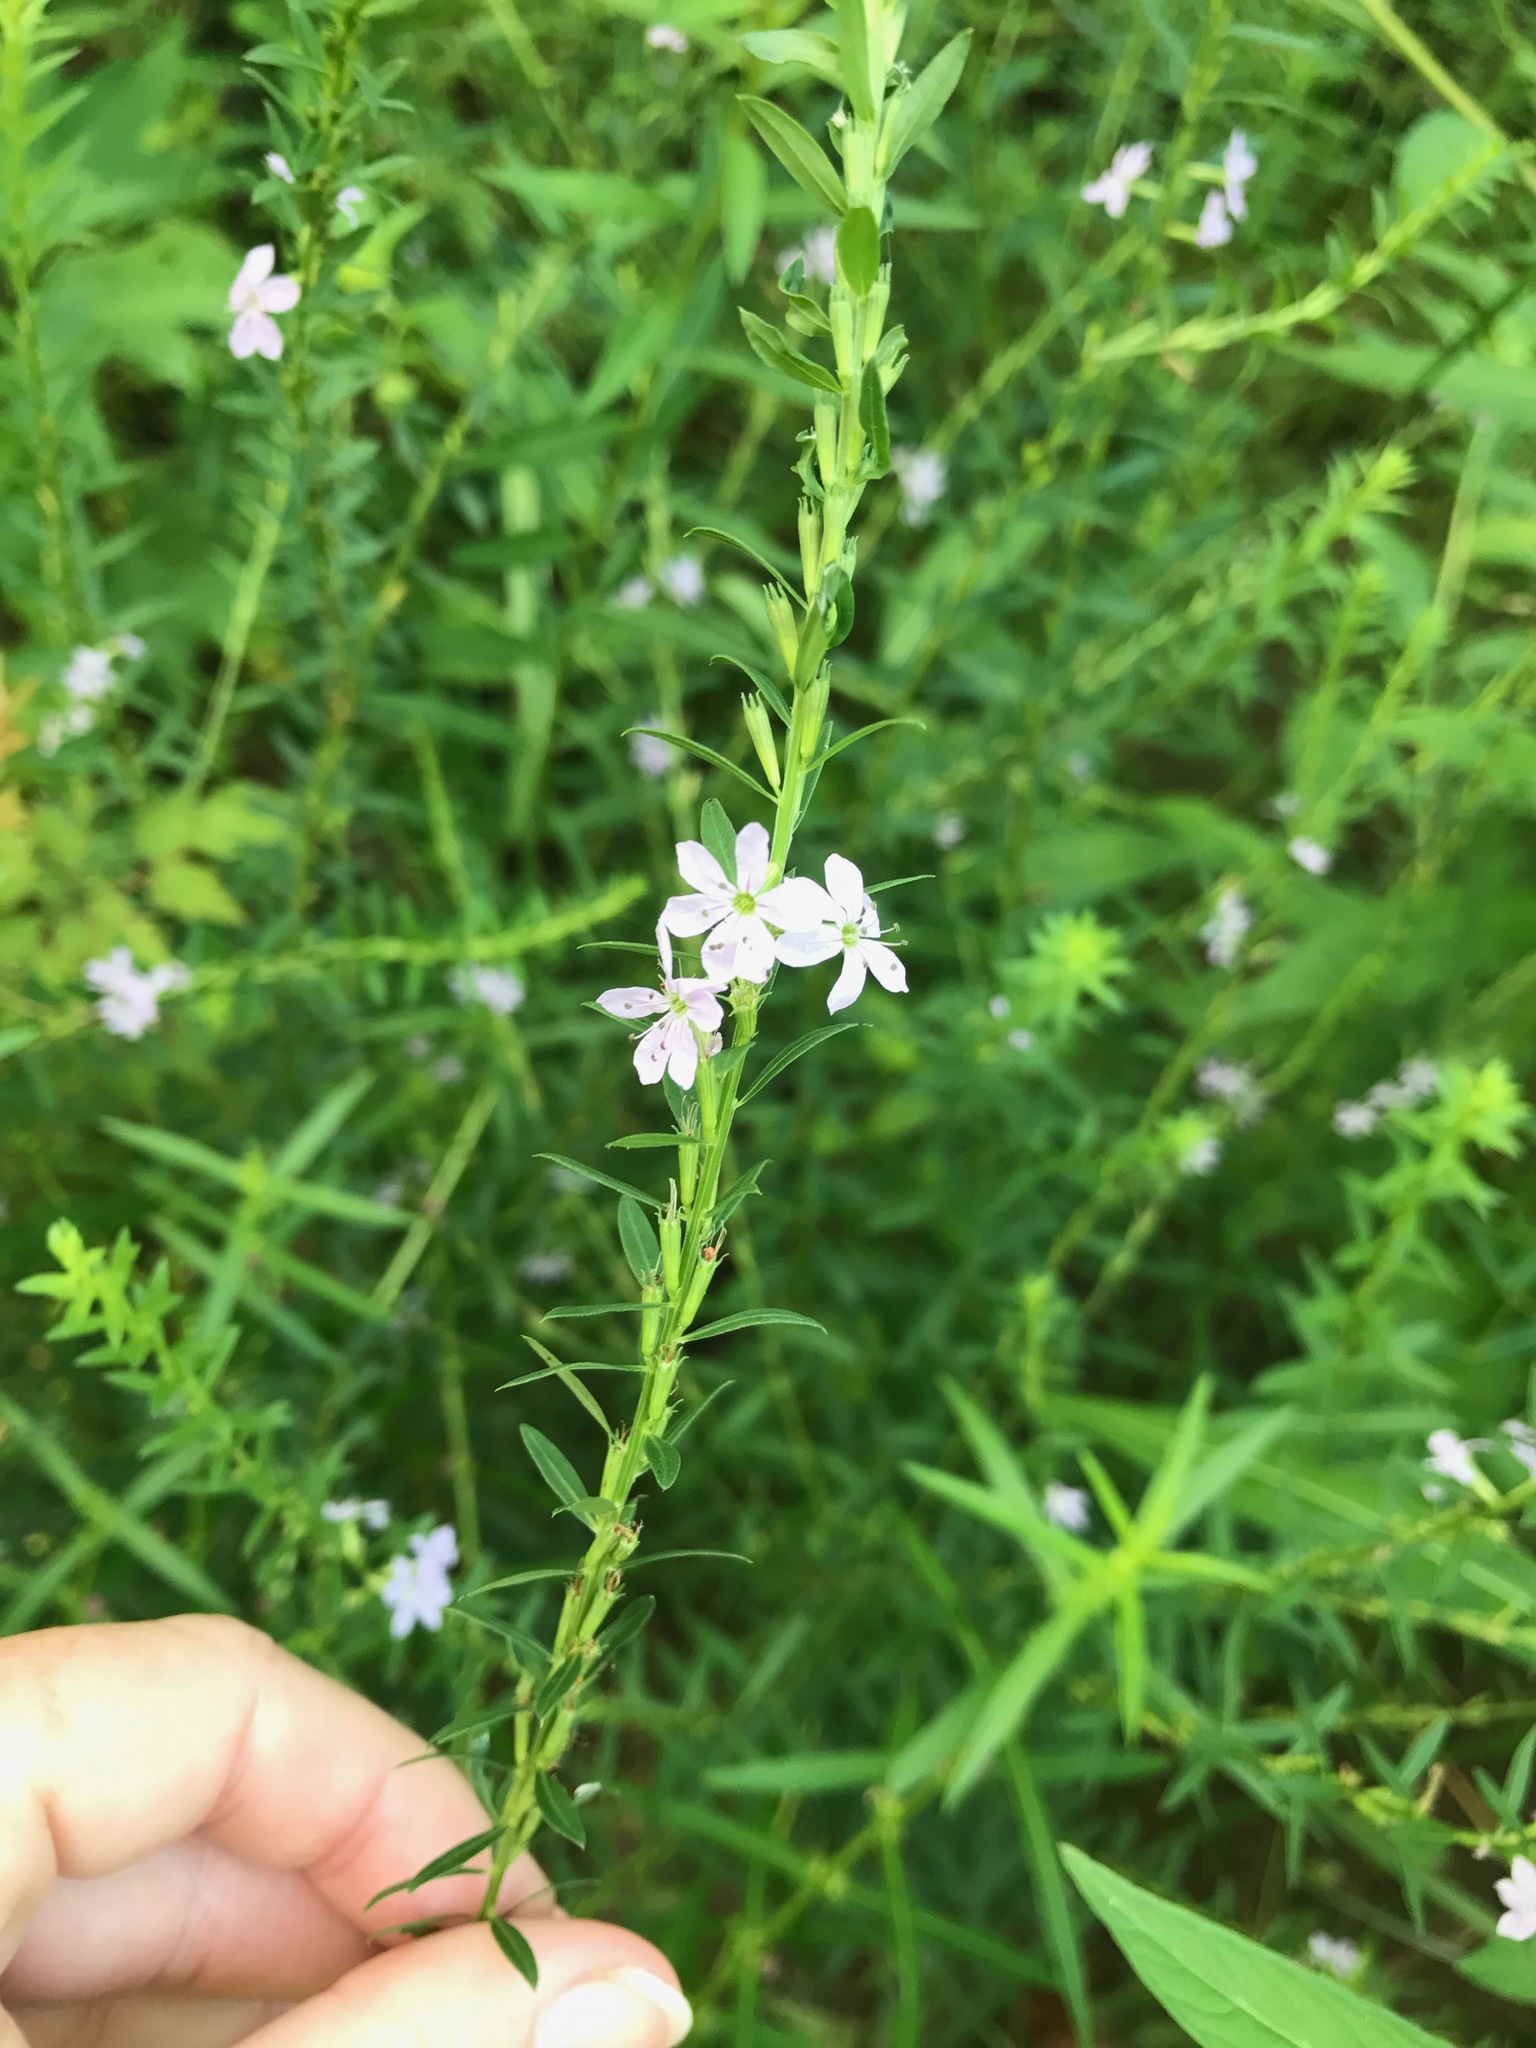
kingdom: Plantae
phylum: Tracheophyta
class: Magnoliopsida
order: Myrtales
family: Lythraceae
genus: Lythrum
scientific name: Lythrum alatum
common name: Winged loosestrife
